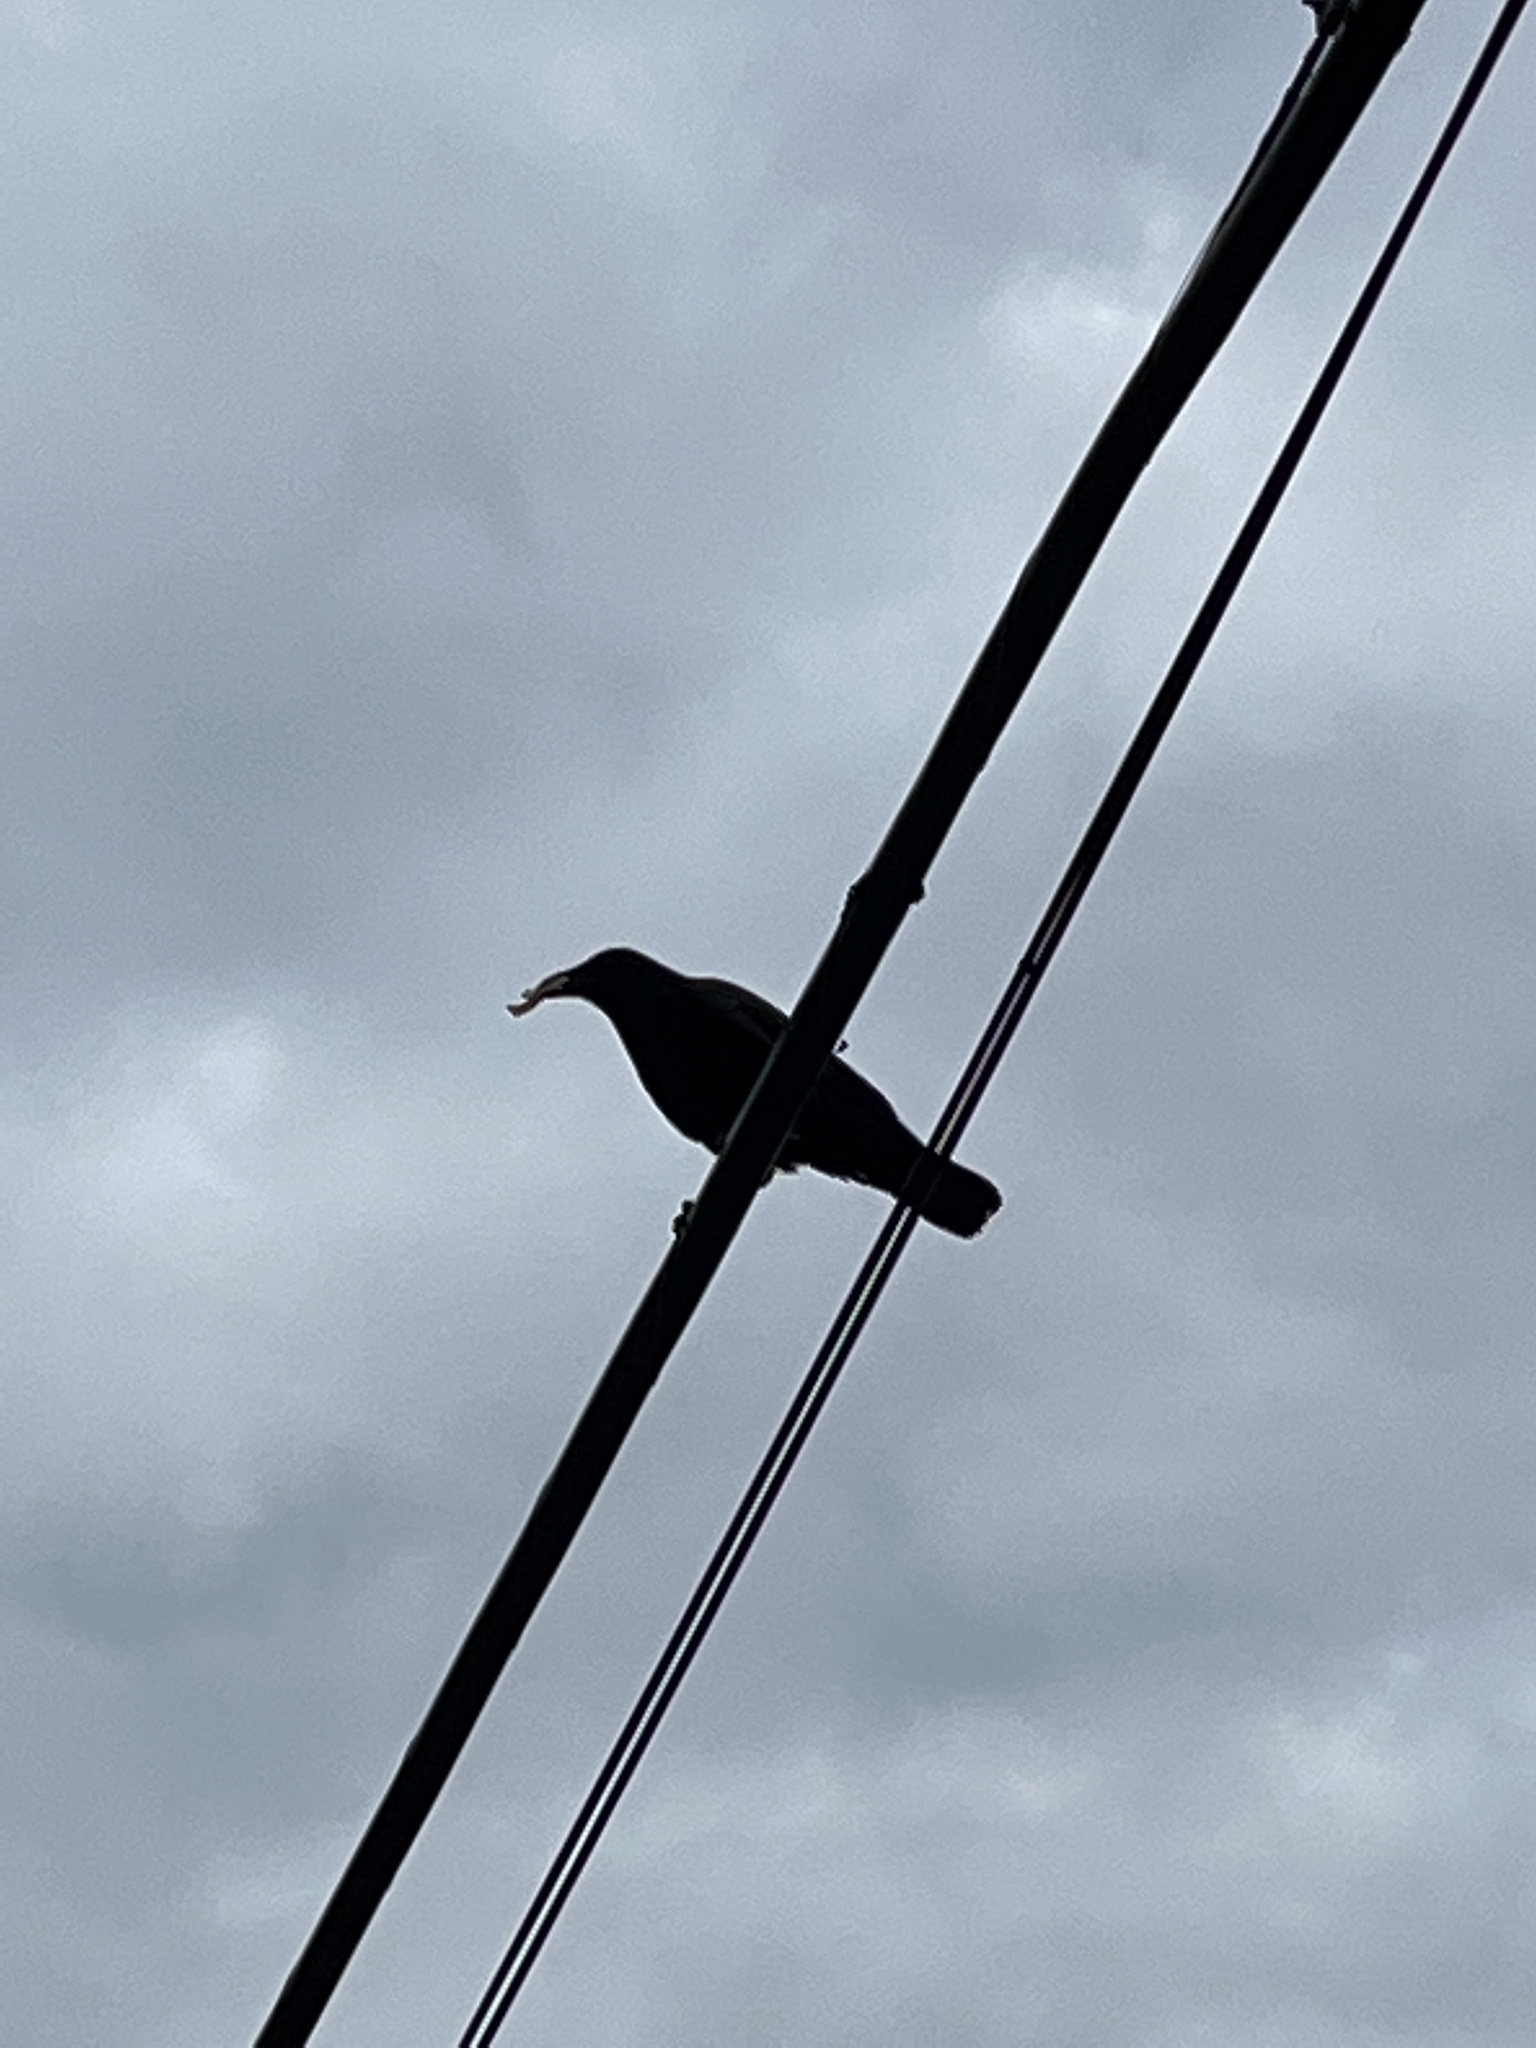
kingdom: Animalia
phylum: Chordata
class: Aves
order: Passeriformes
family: Corvidae
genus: Corvus
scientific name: Corvus brachyrhynchos
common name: American crow
